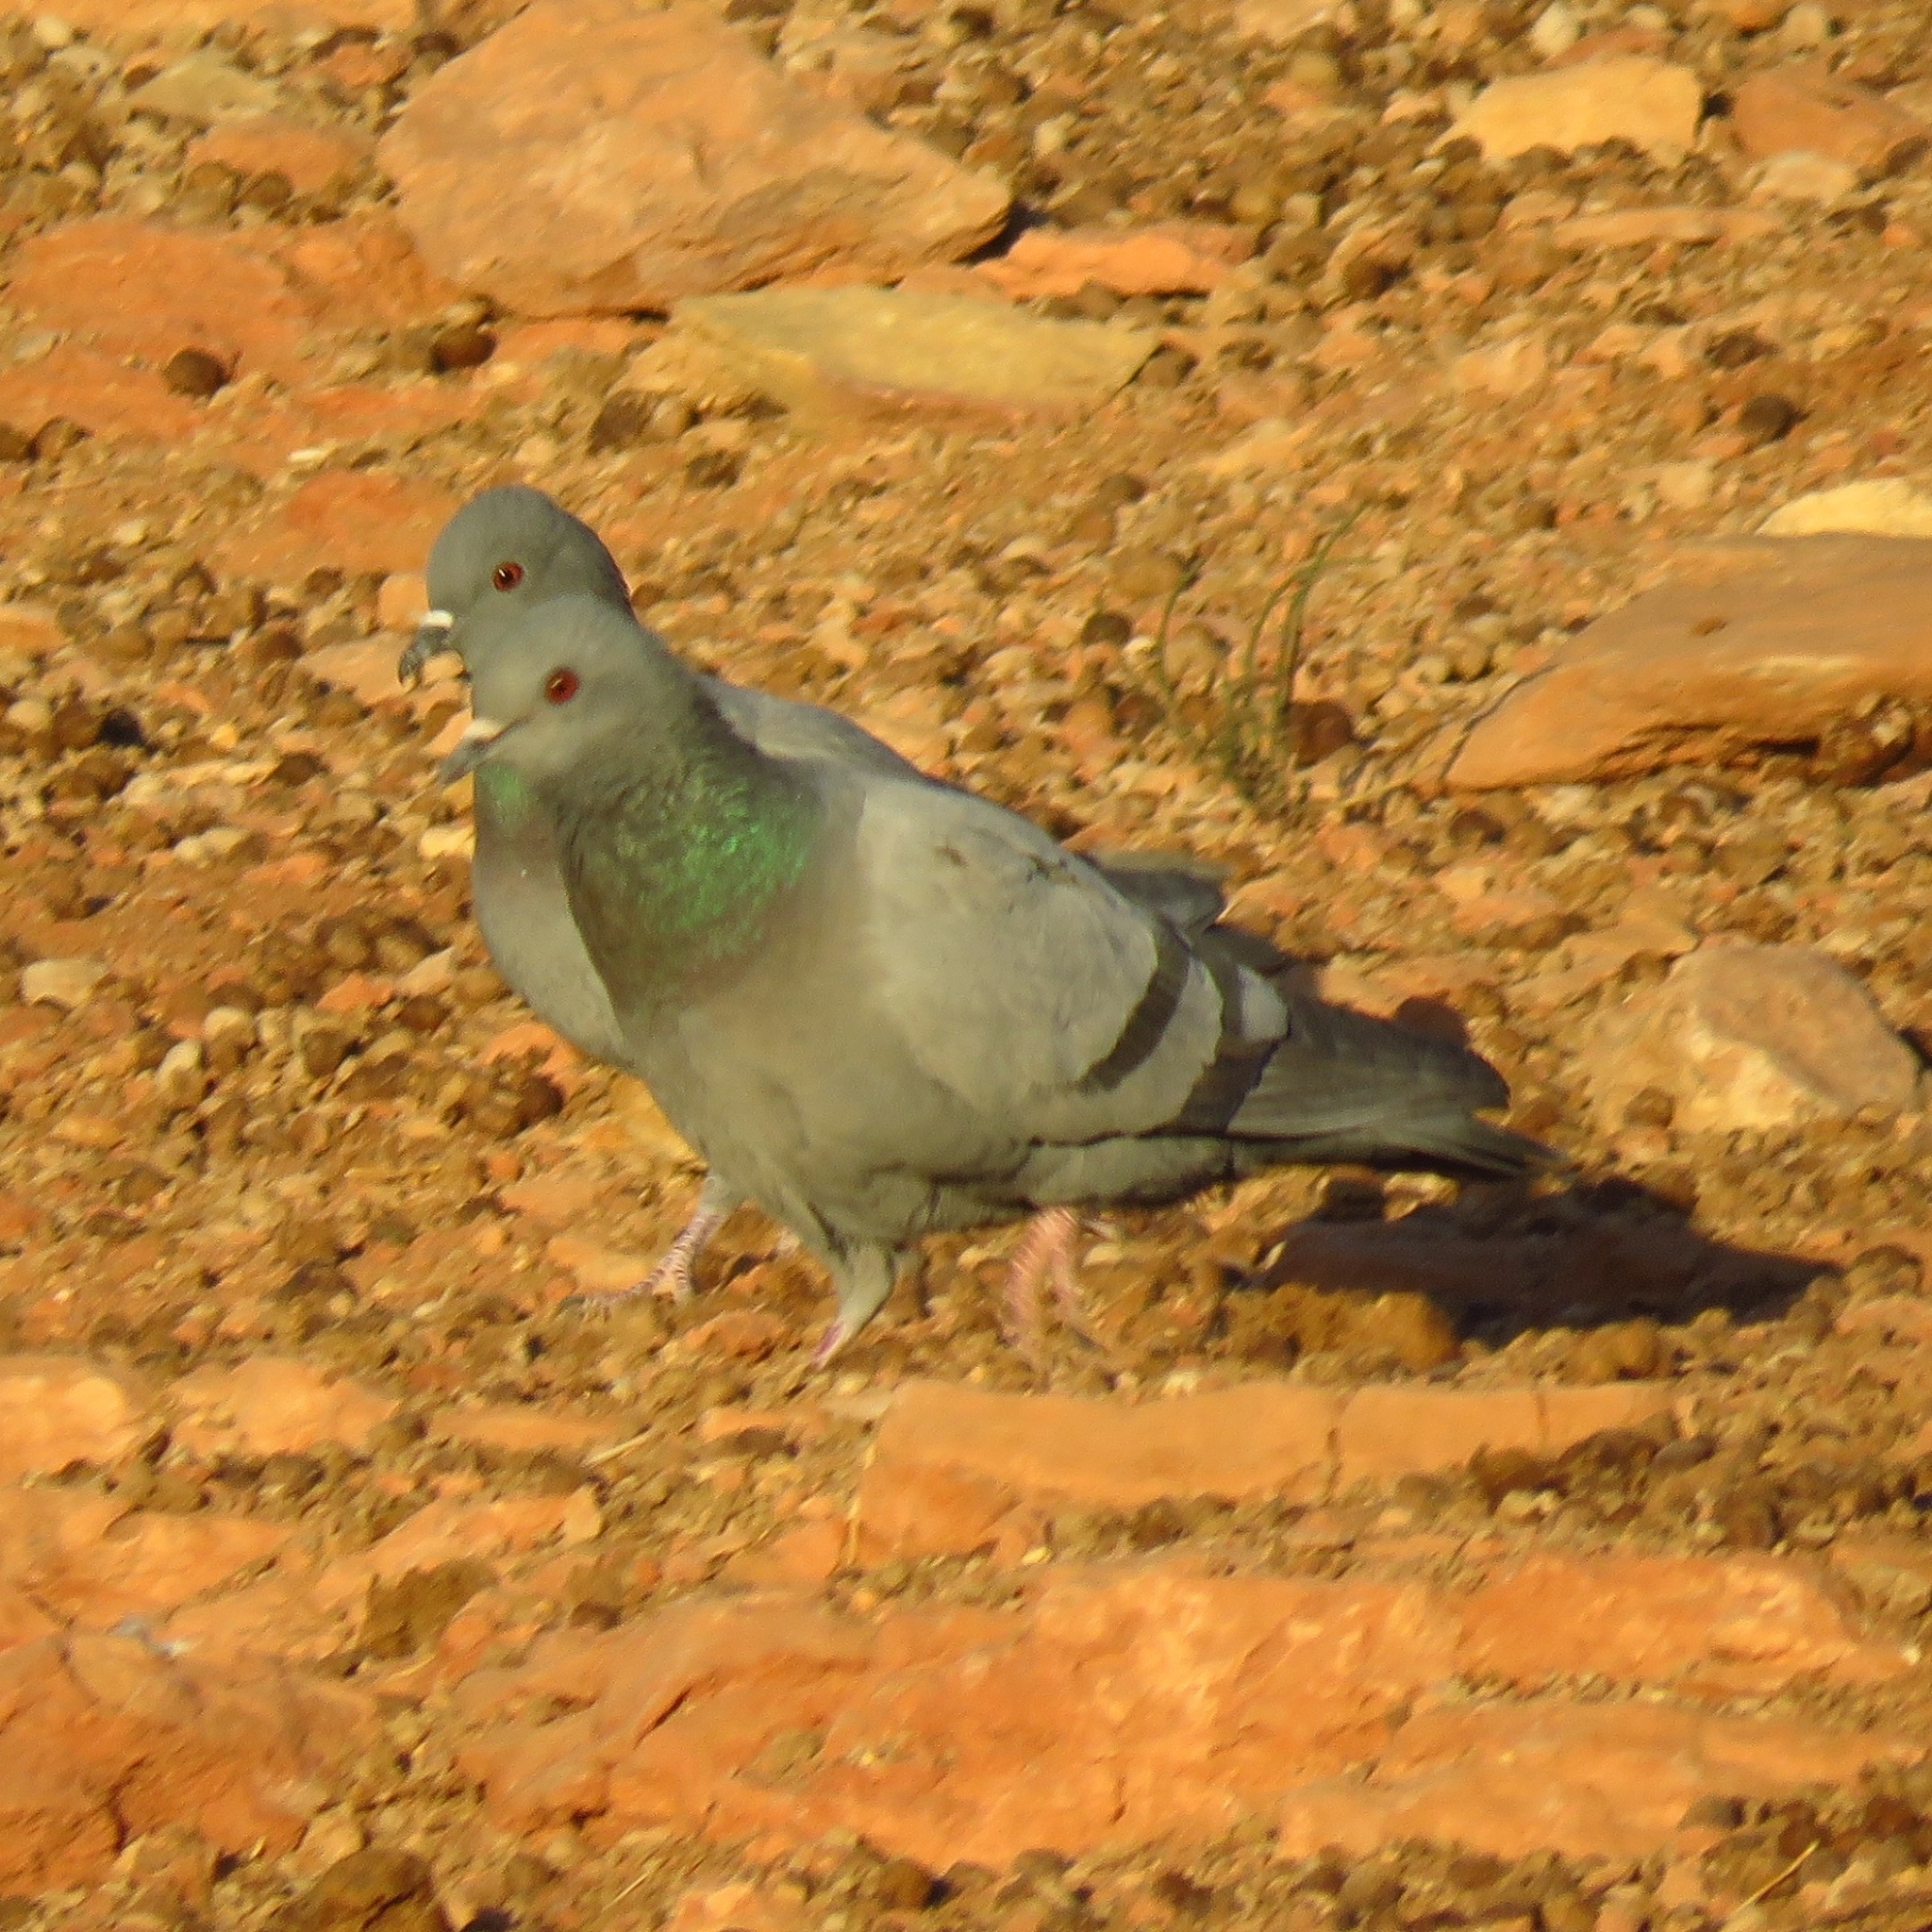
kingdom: Animalia
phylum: Chordata
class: Aves
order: Columbiformes
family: Columbidae
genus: Columba
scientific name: Columba livia
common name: Rock pigeon
